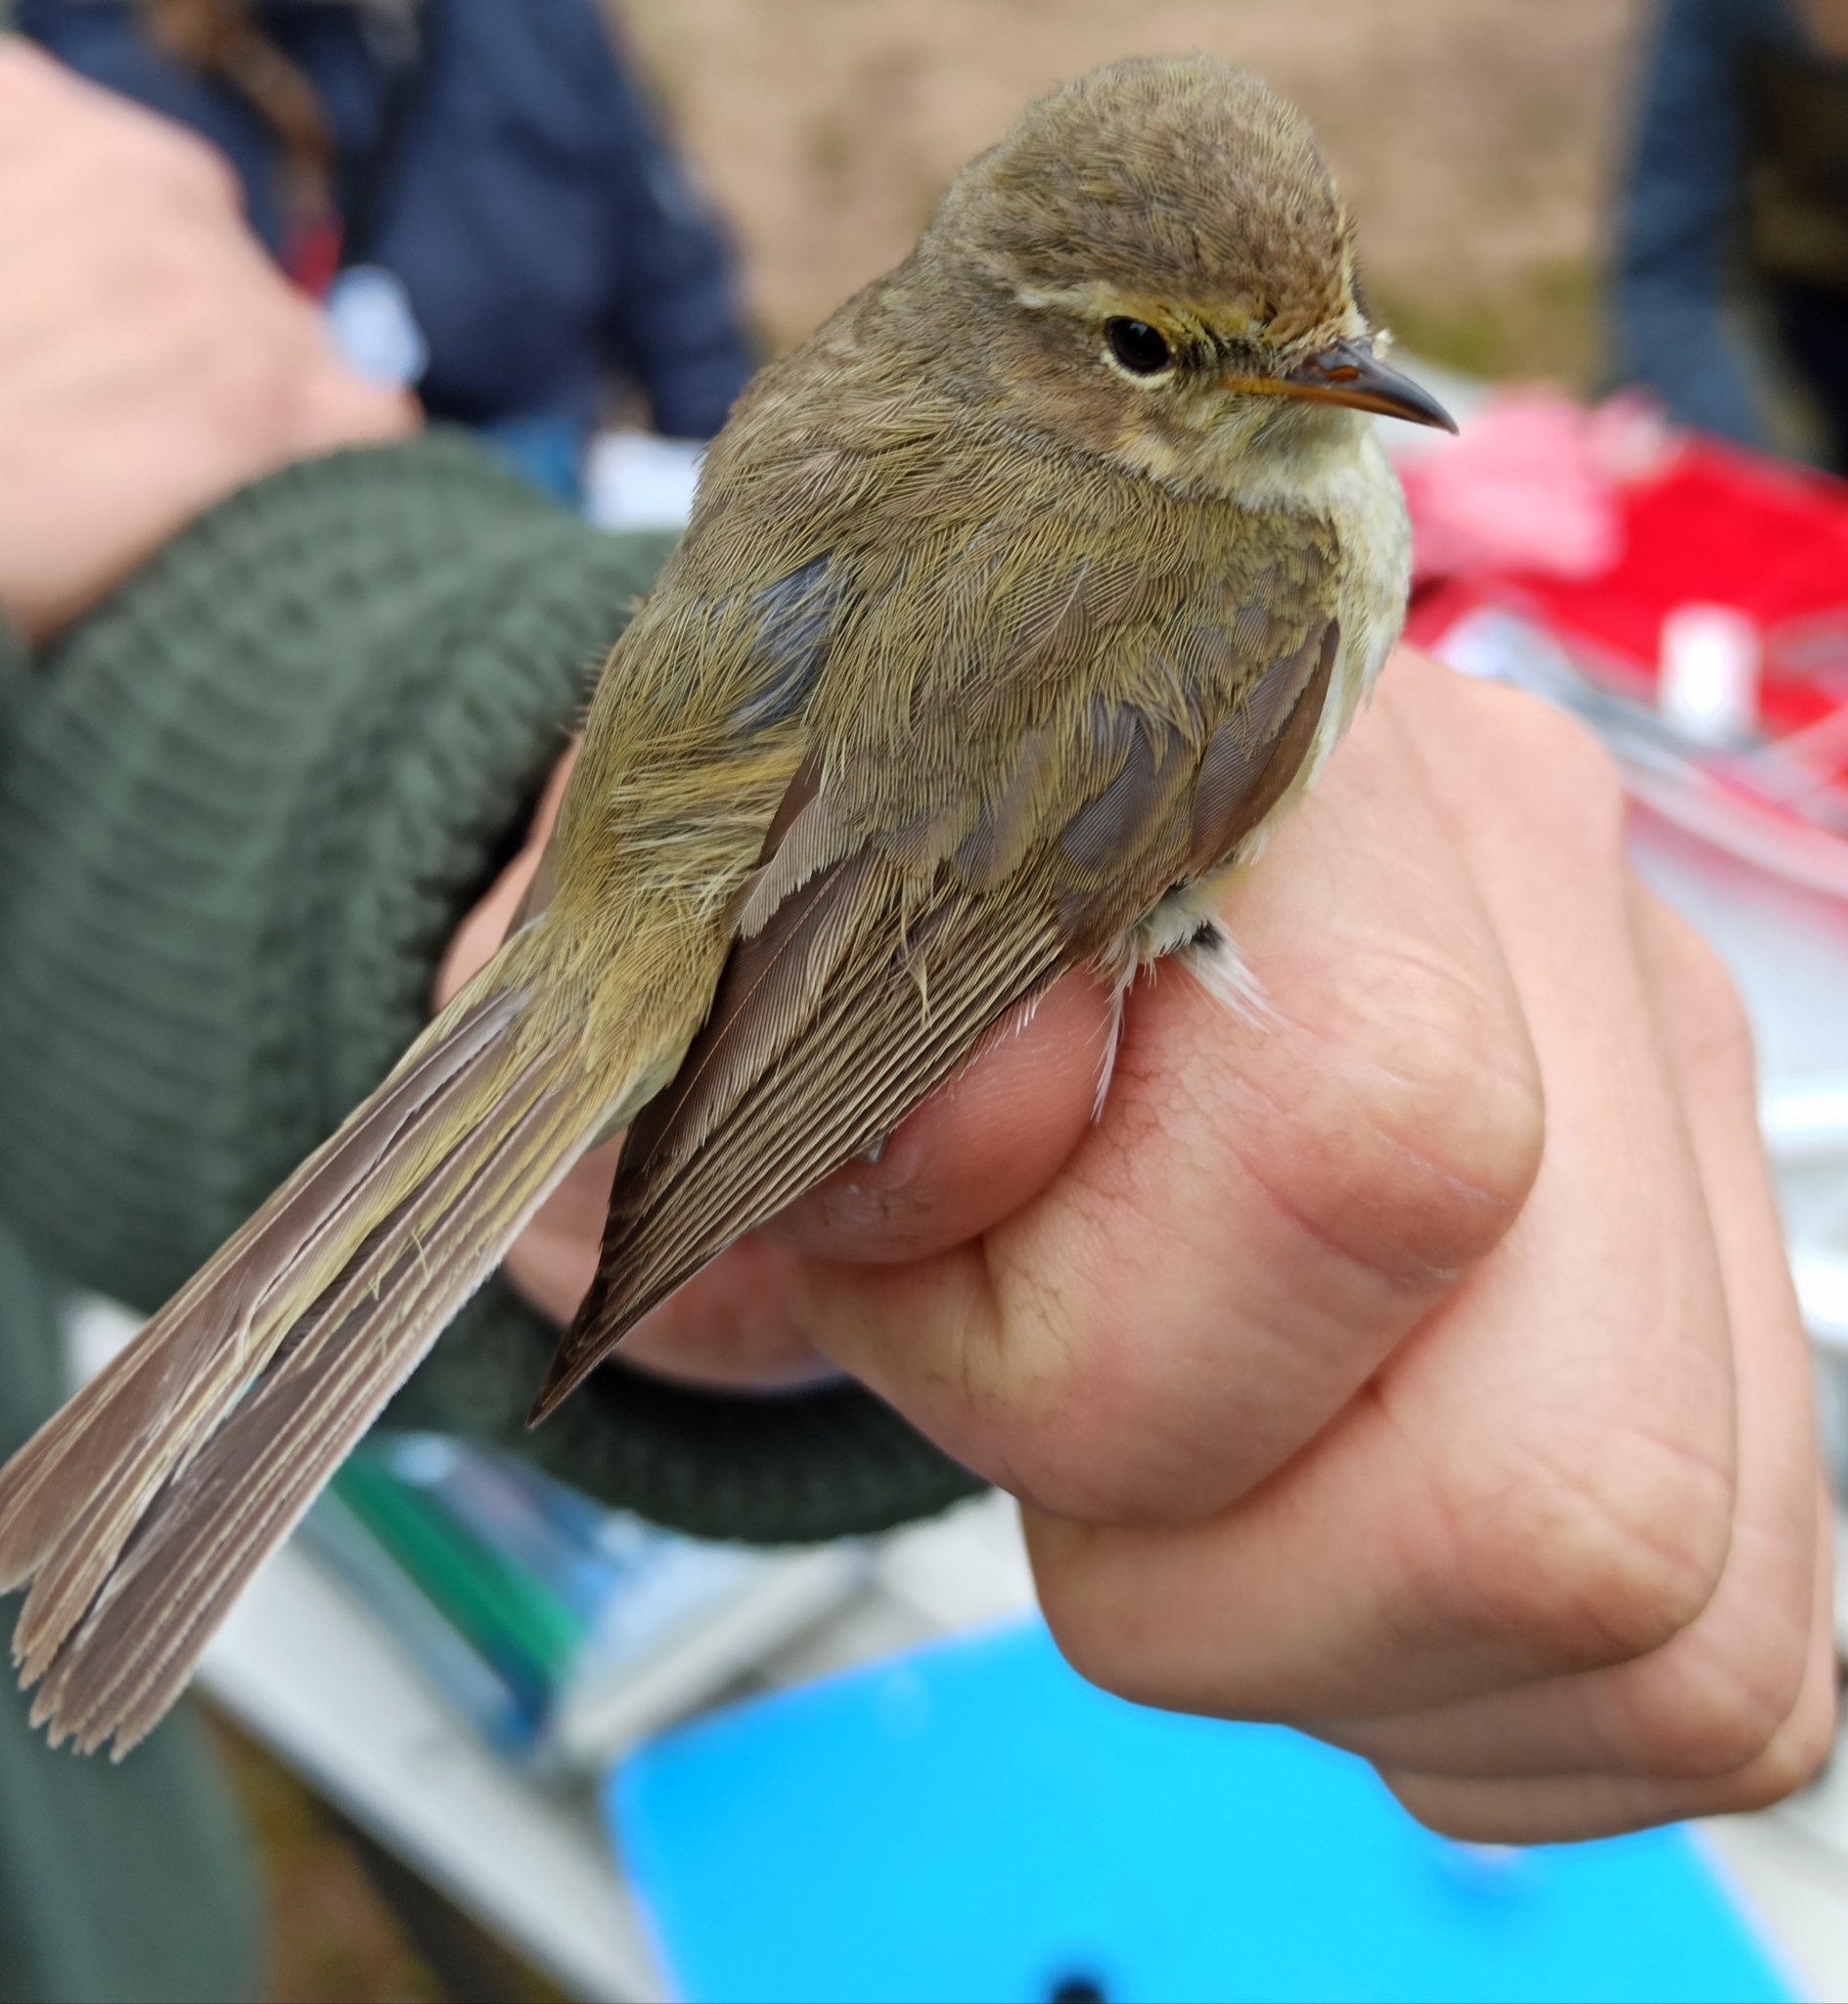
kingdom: Animalia
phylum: Chordata
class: Aves
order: Passeriformes
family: Phylloscopidae
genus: Phylloscopus
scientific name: Phylloscopus collybita
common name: Common chiffchaff
